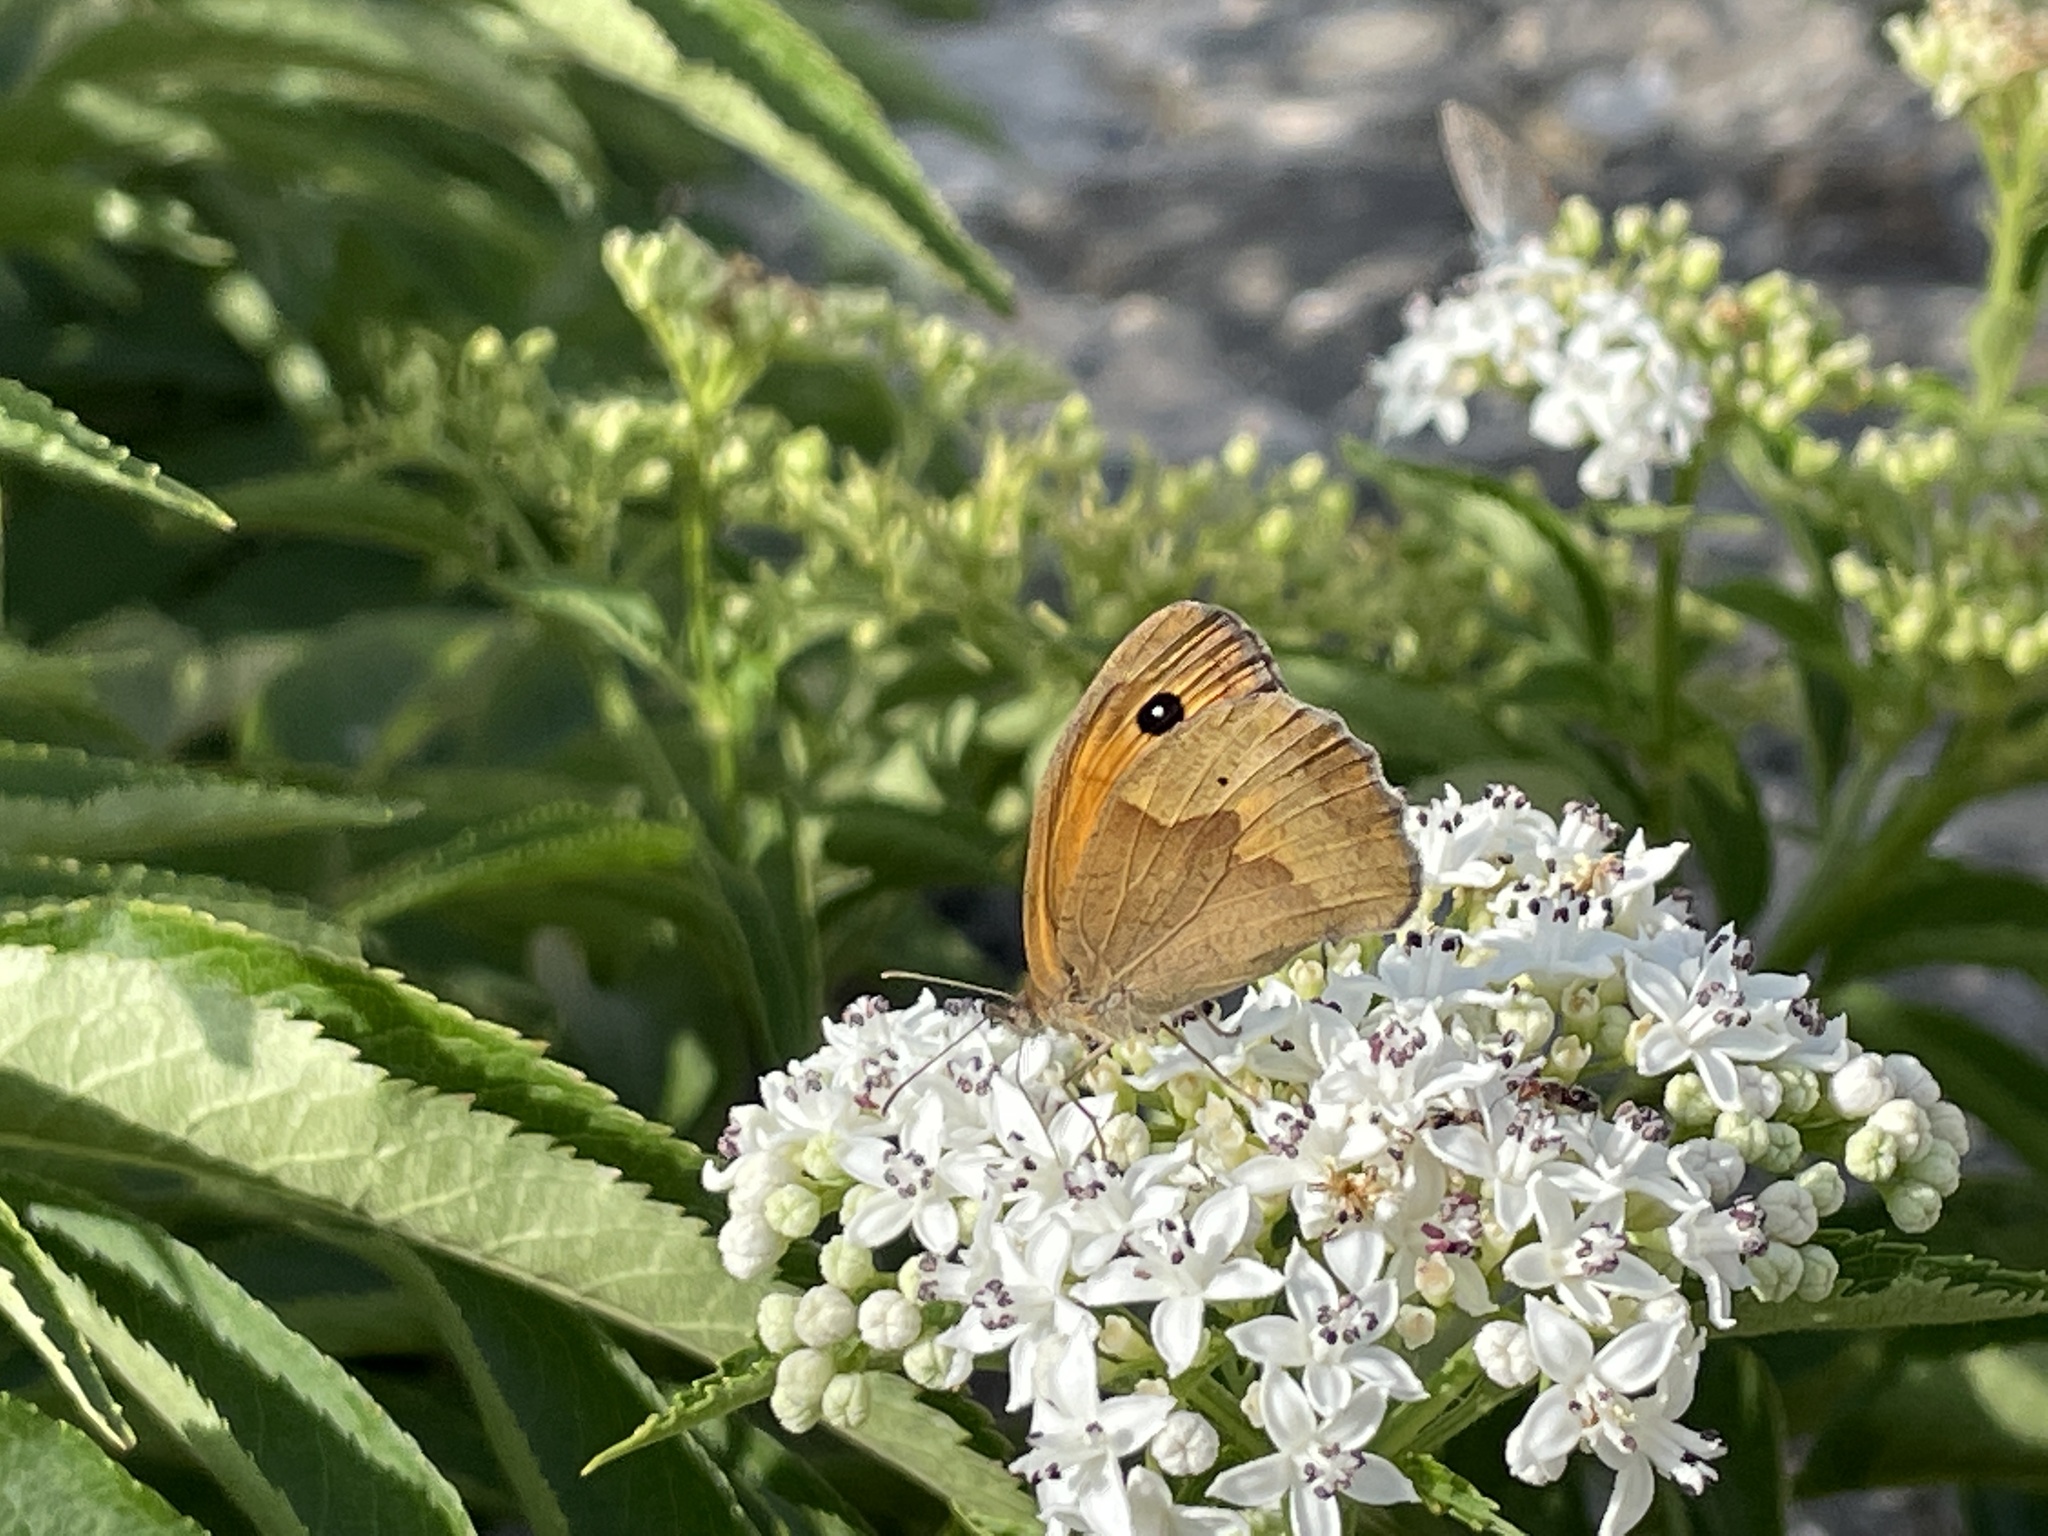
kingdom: Animalia
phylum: Arthropoda
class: Insecta
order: Lepidoptera
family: Nymphalidae
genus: Maniola
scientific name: Maniola jurtina
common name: Meadow brown
